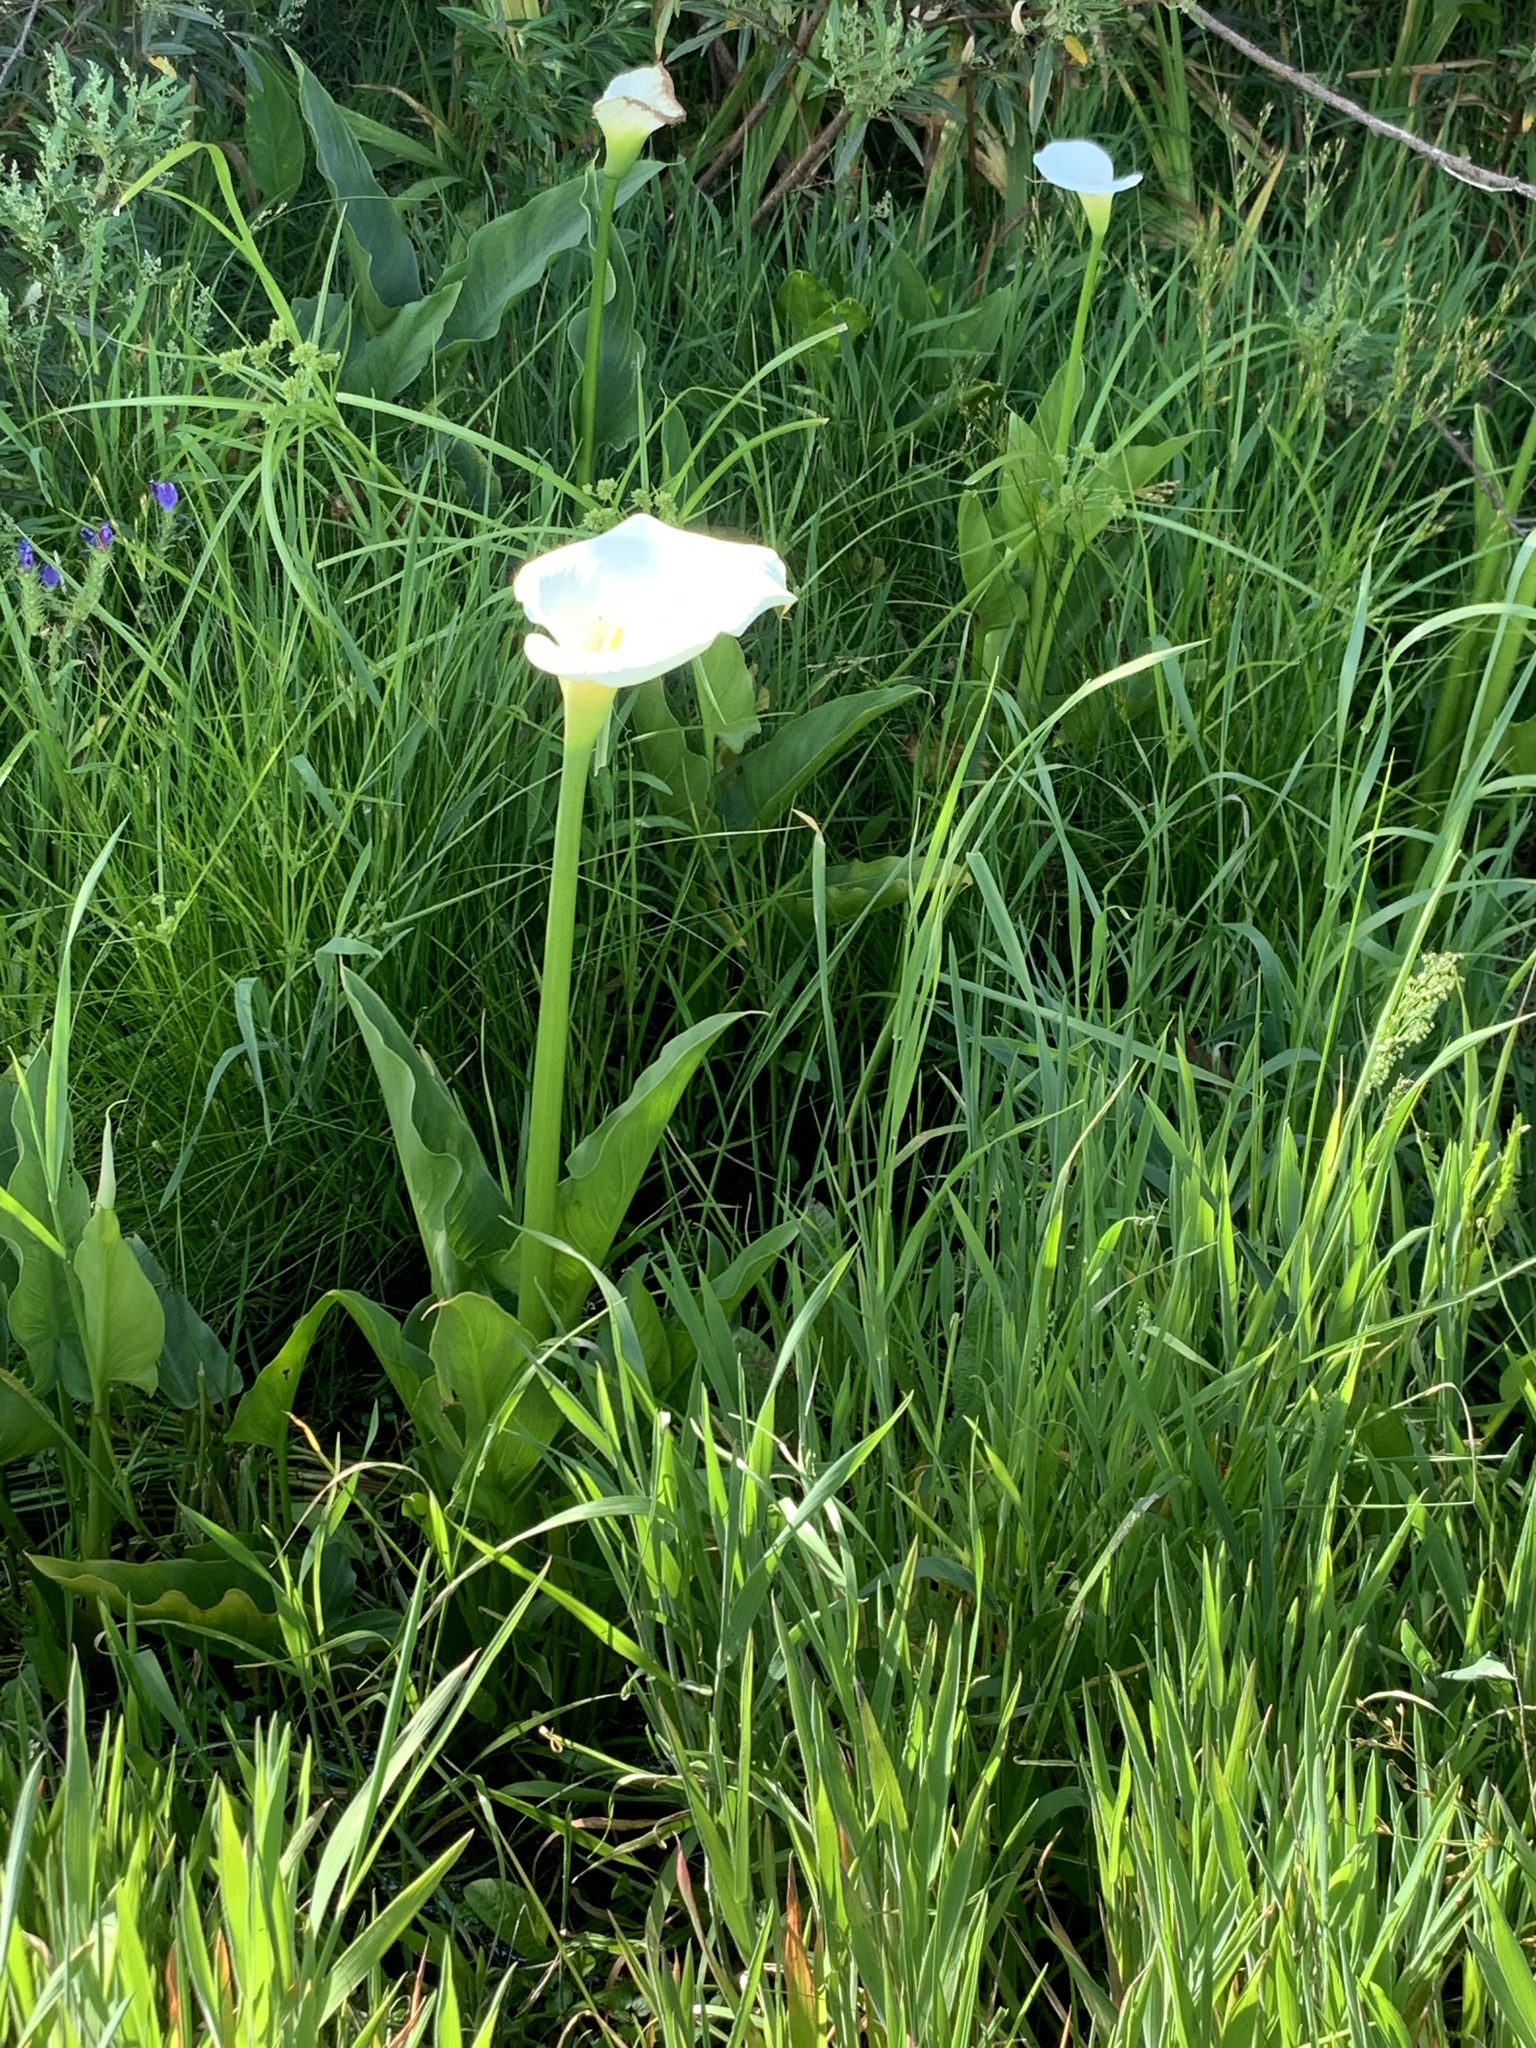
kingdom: Plantae
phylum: Tracheophyta
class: Liliopsida
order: Alismatales
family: Araceae
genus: Zantedeschia
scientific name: Zantedeschia aethiopica
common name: Altar-lily
